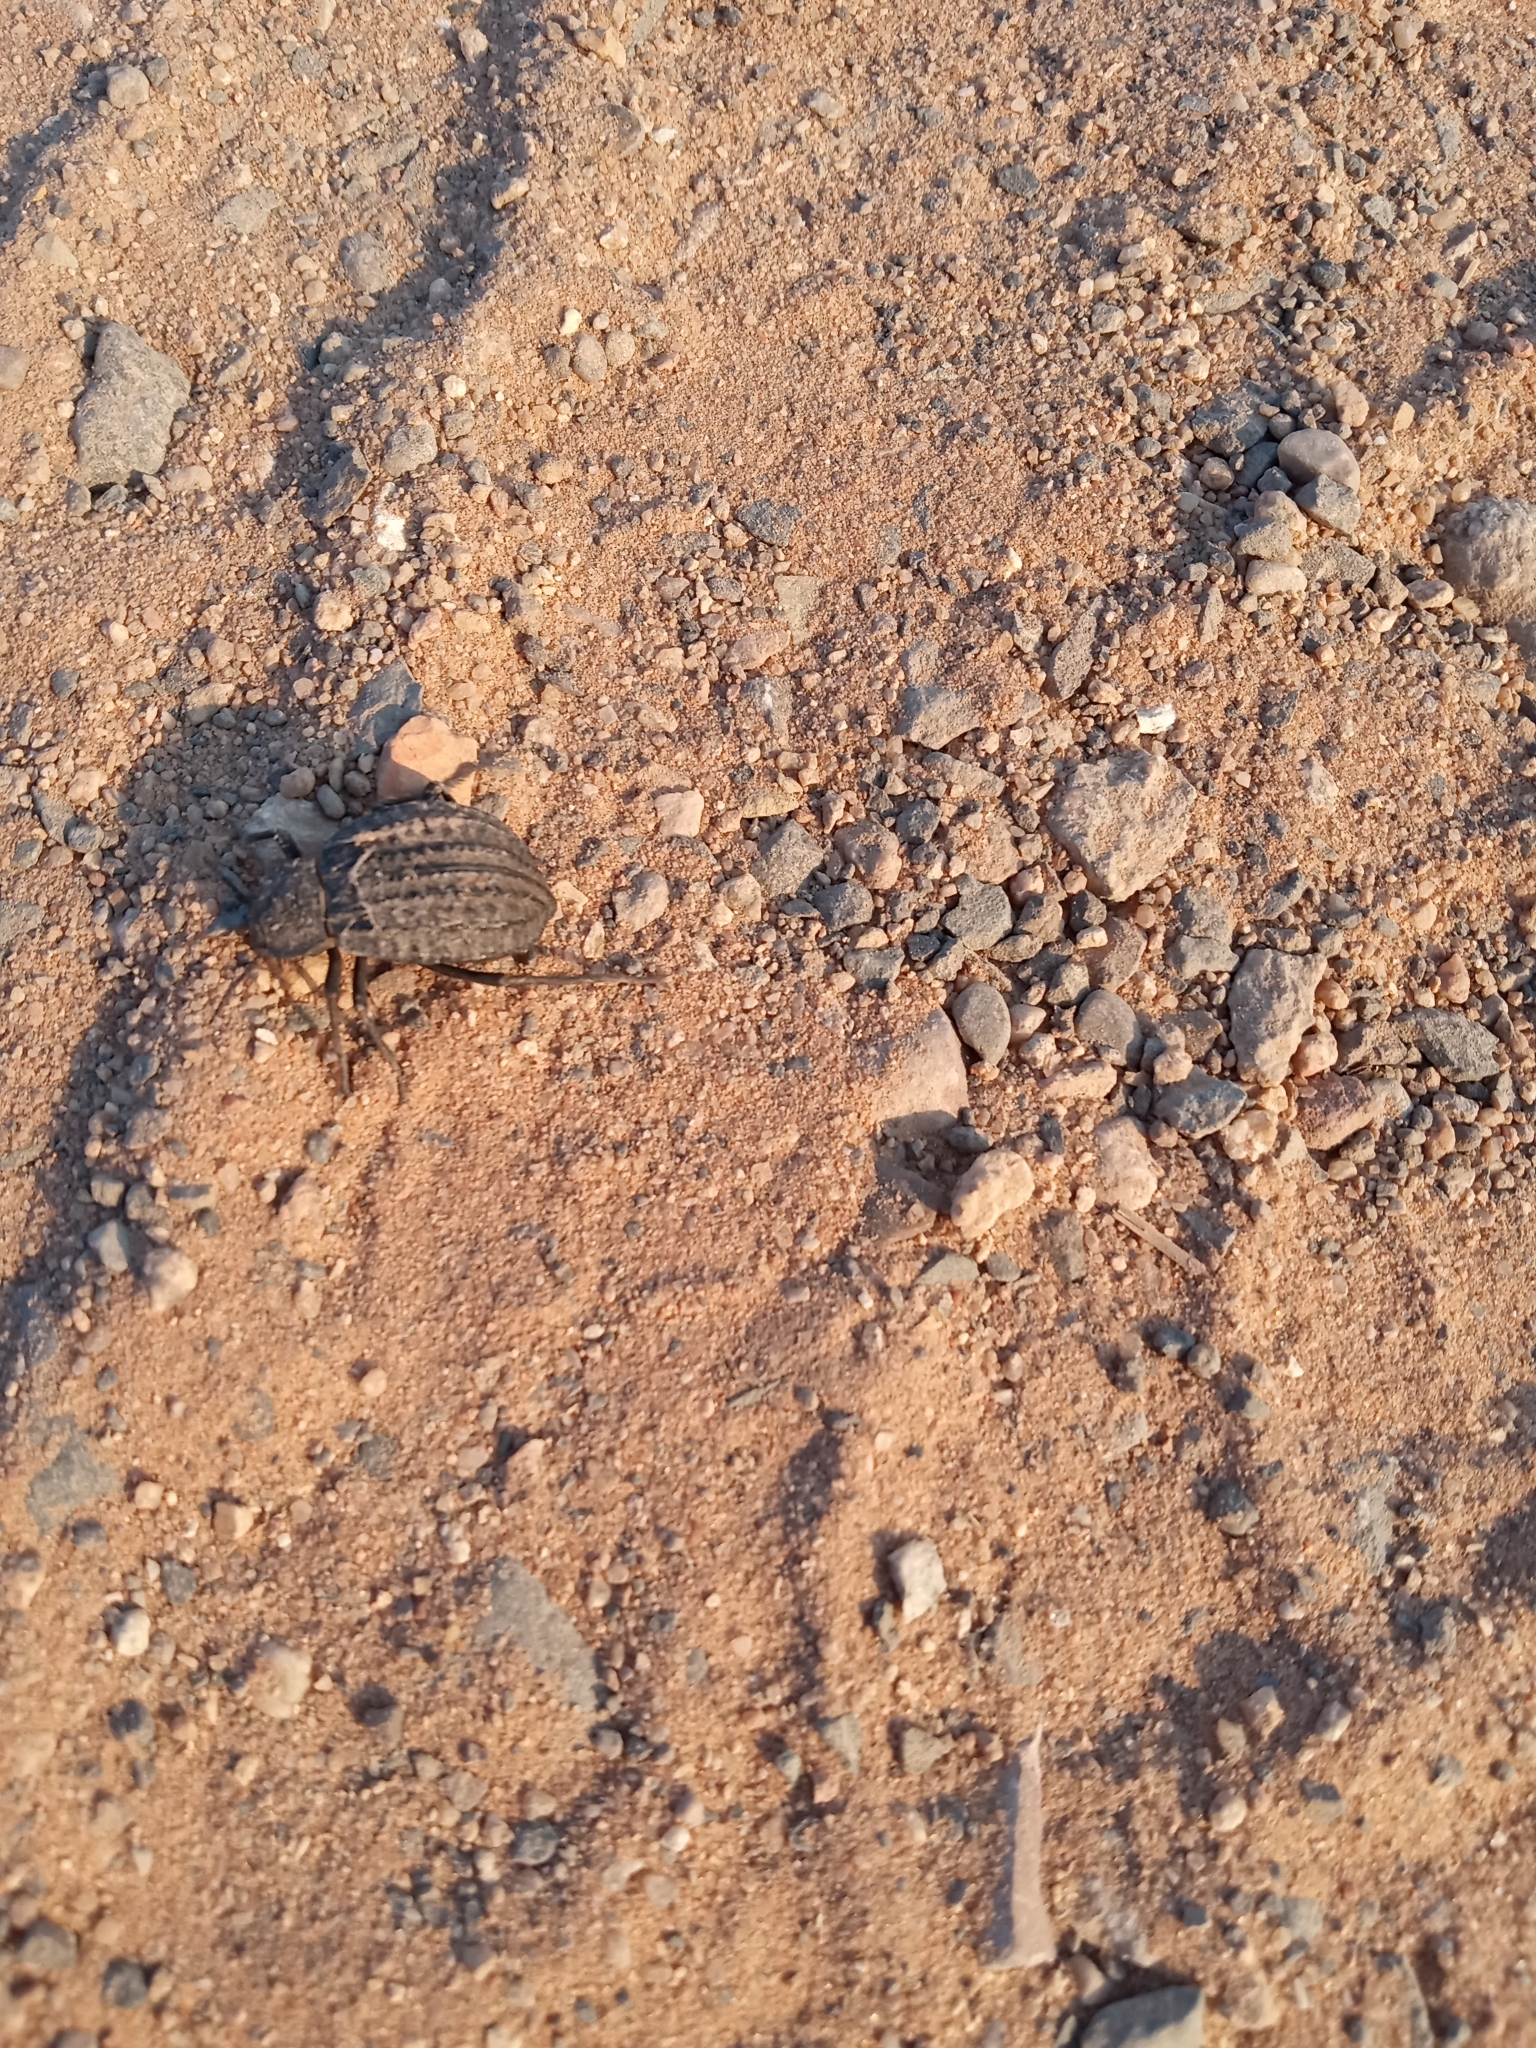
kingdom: Animalia
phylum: Arthropoda
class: Insecta
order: Coleoptera
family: Tenebrionidae
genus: Philolithus
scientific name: Philolithus sordidus
